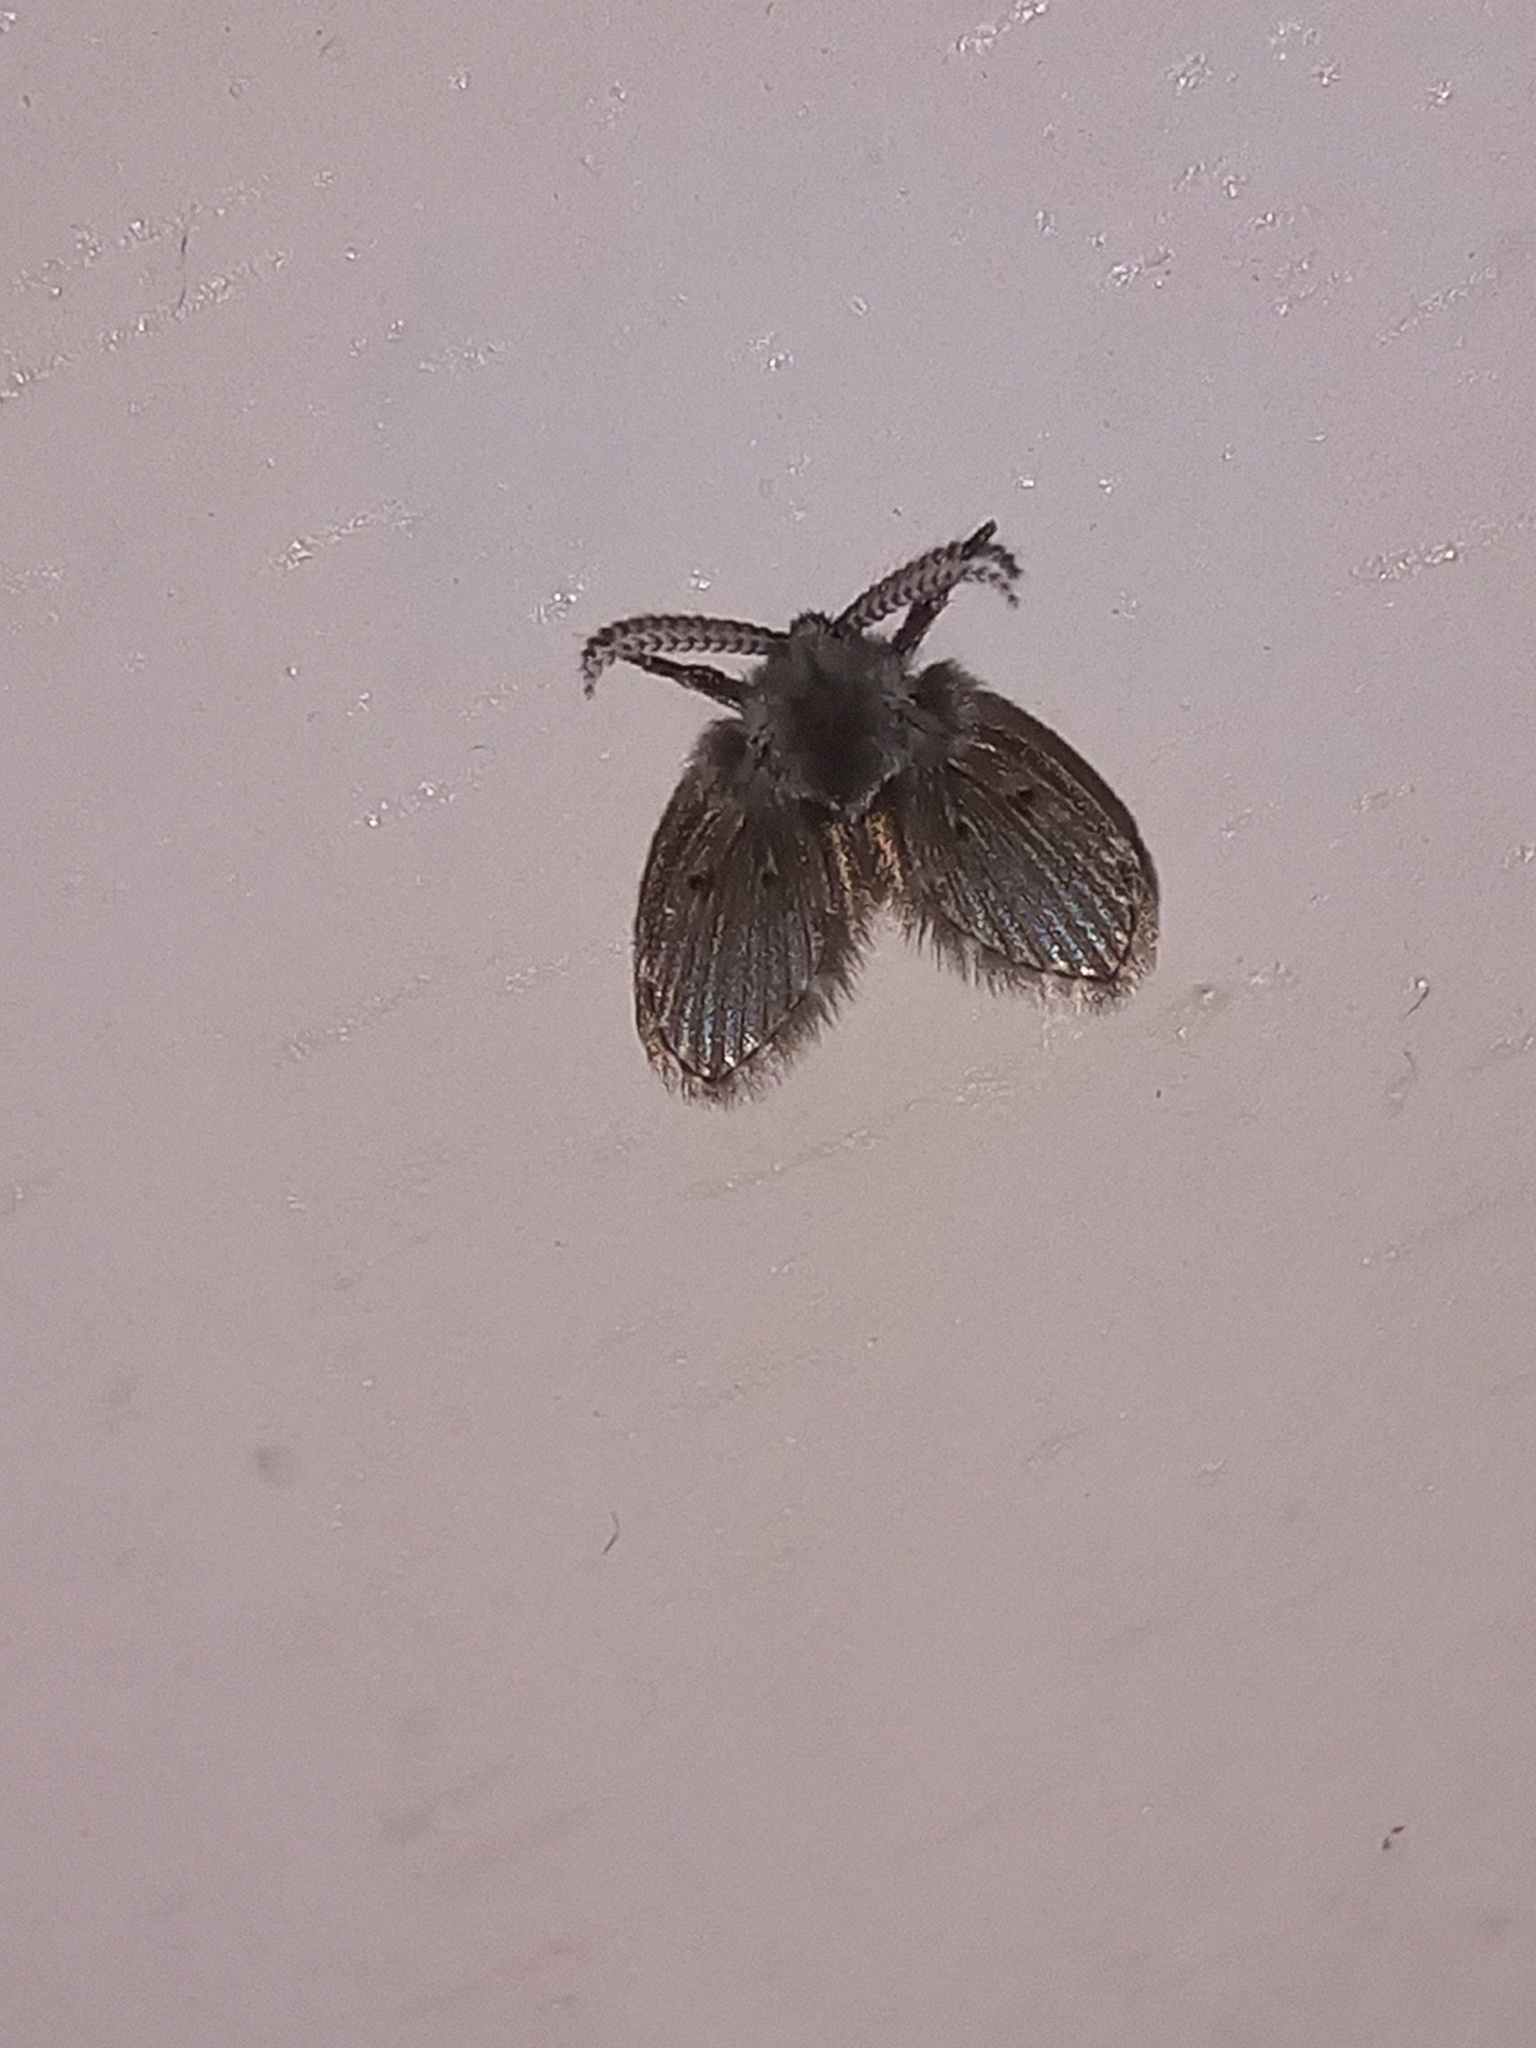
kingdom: Animalia
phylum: Arthropoda
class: Insecta
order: Diptera
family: Psychodidae
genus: Clogmia
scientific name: Clogmia albipunctatus
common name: White-spotted moth fly
